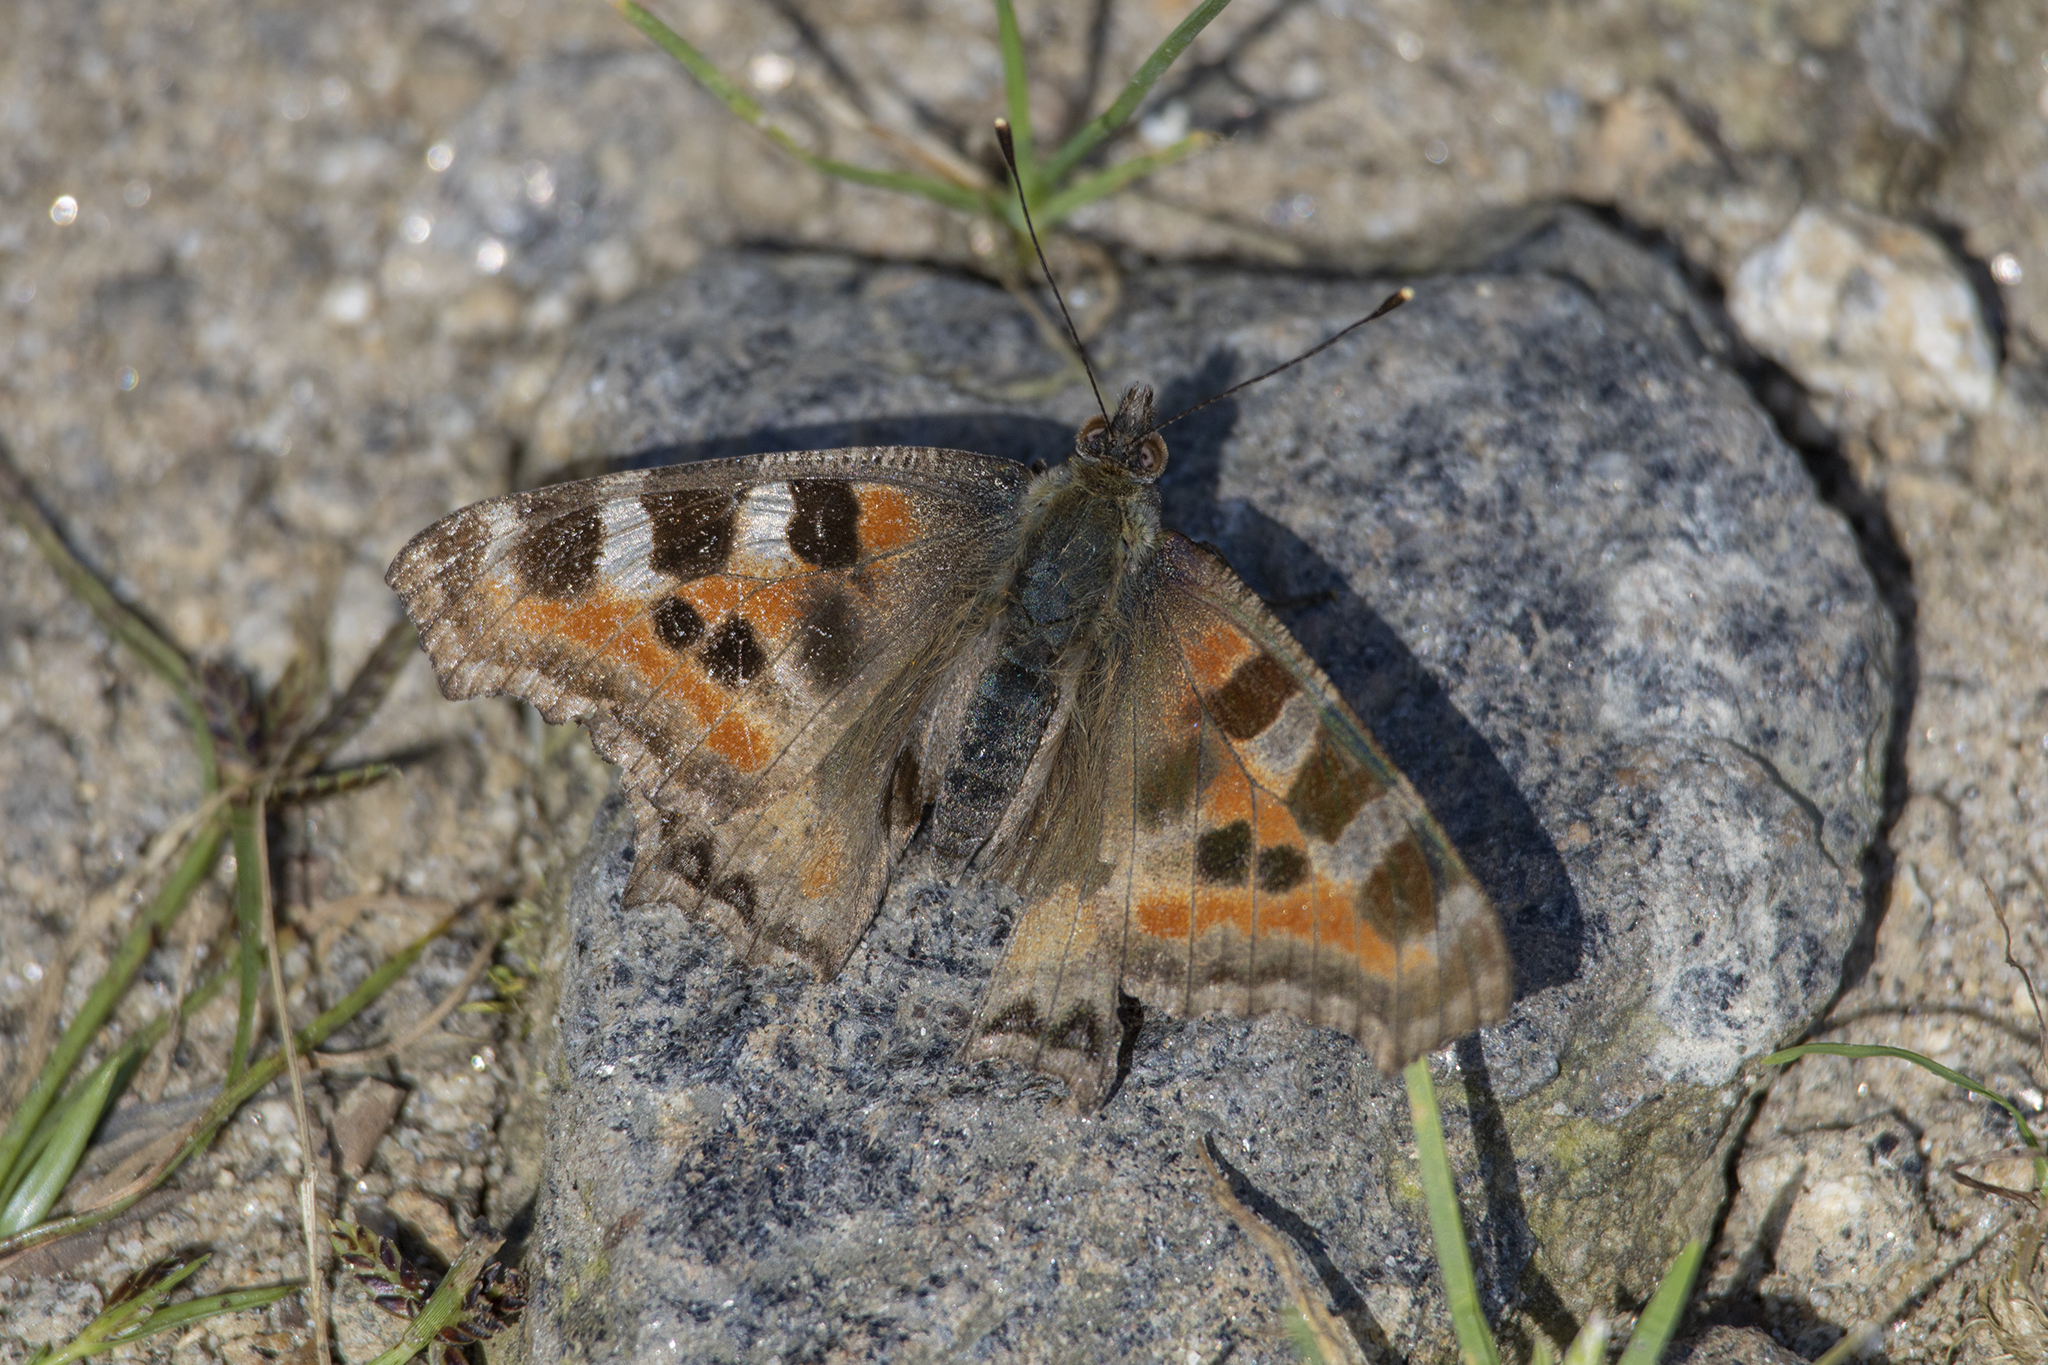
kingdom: Animalia
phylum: Arthropoda
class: Insecta
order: Lepidoptera
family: Nymphalidae
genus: Aglais
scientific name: Aglais caschmirensis
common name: Indian tortoiseshell
